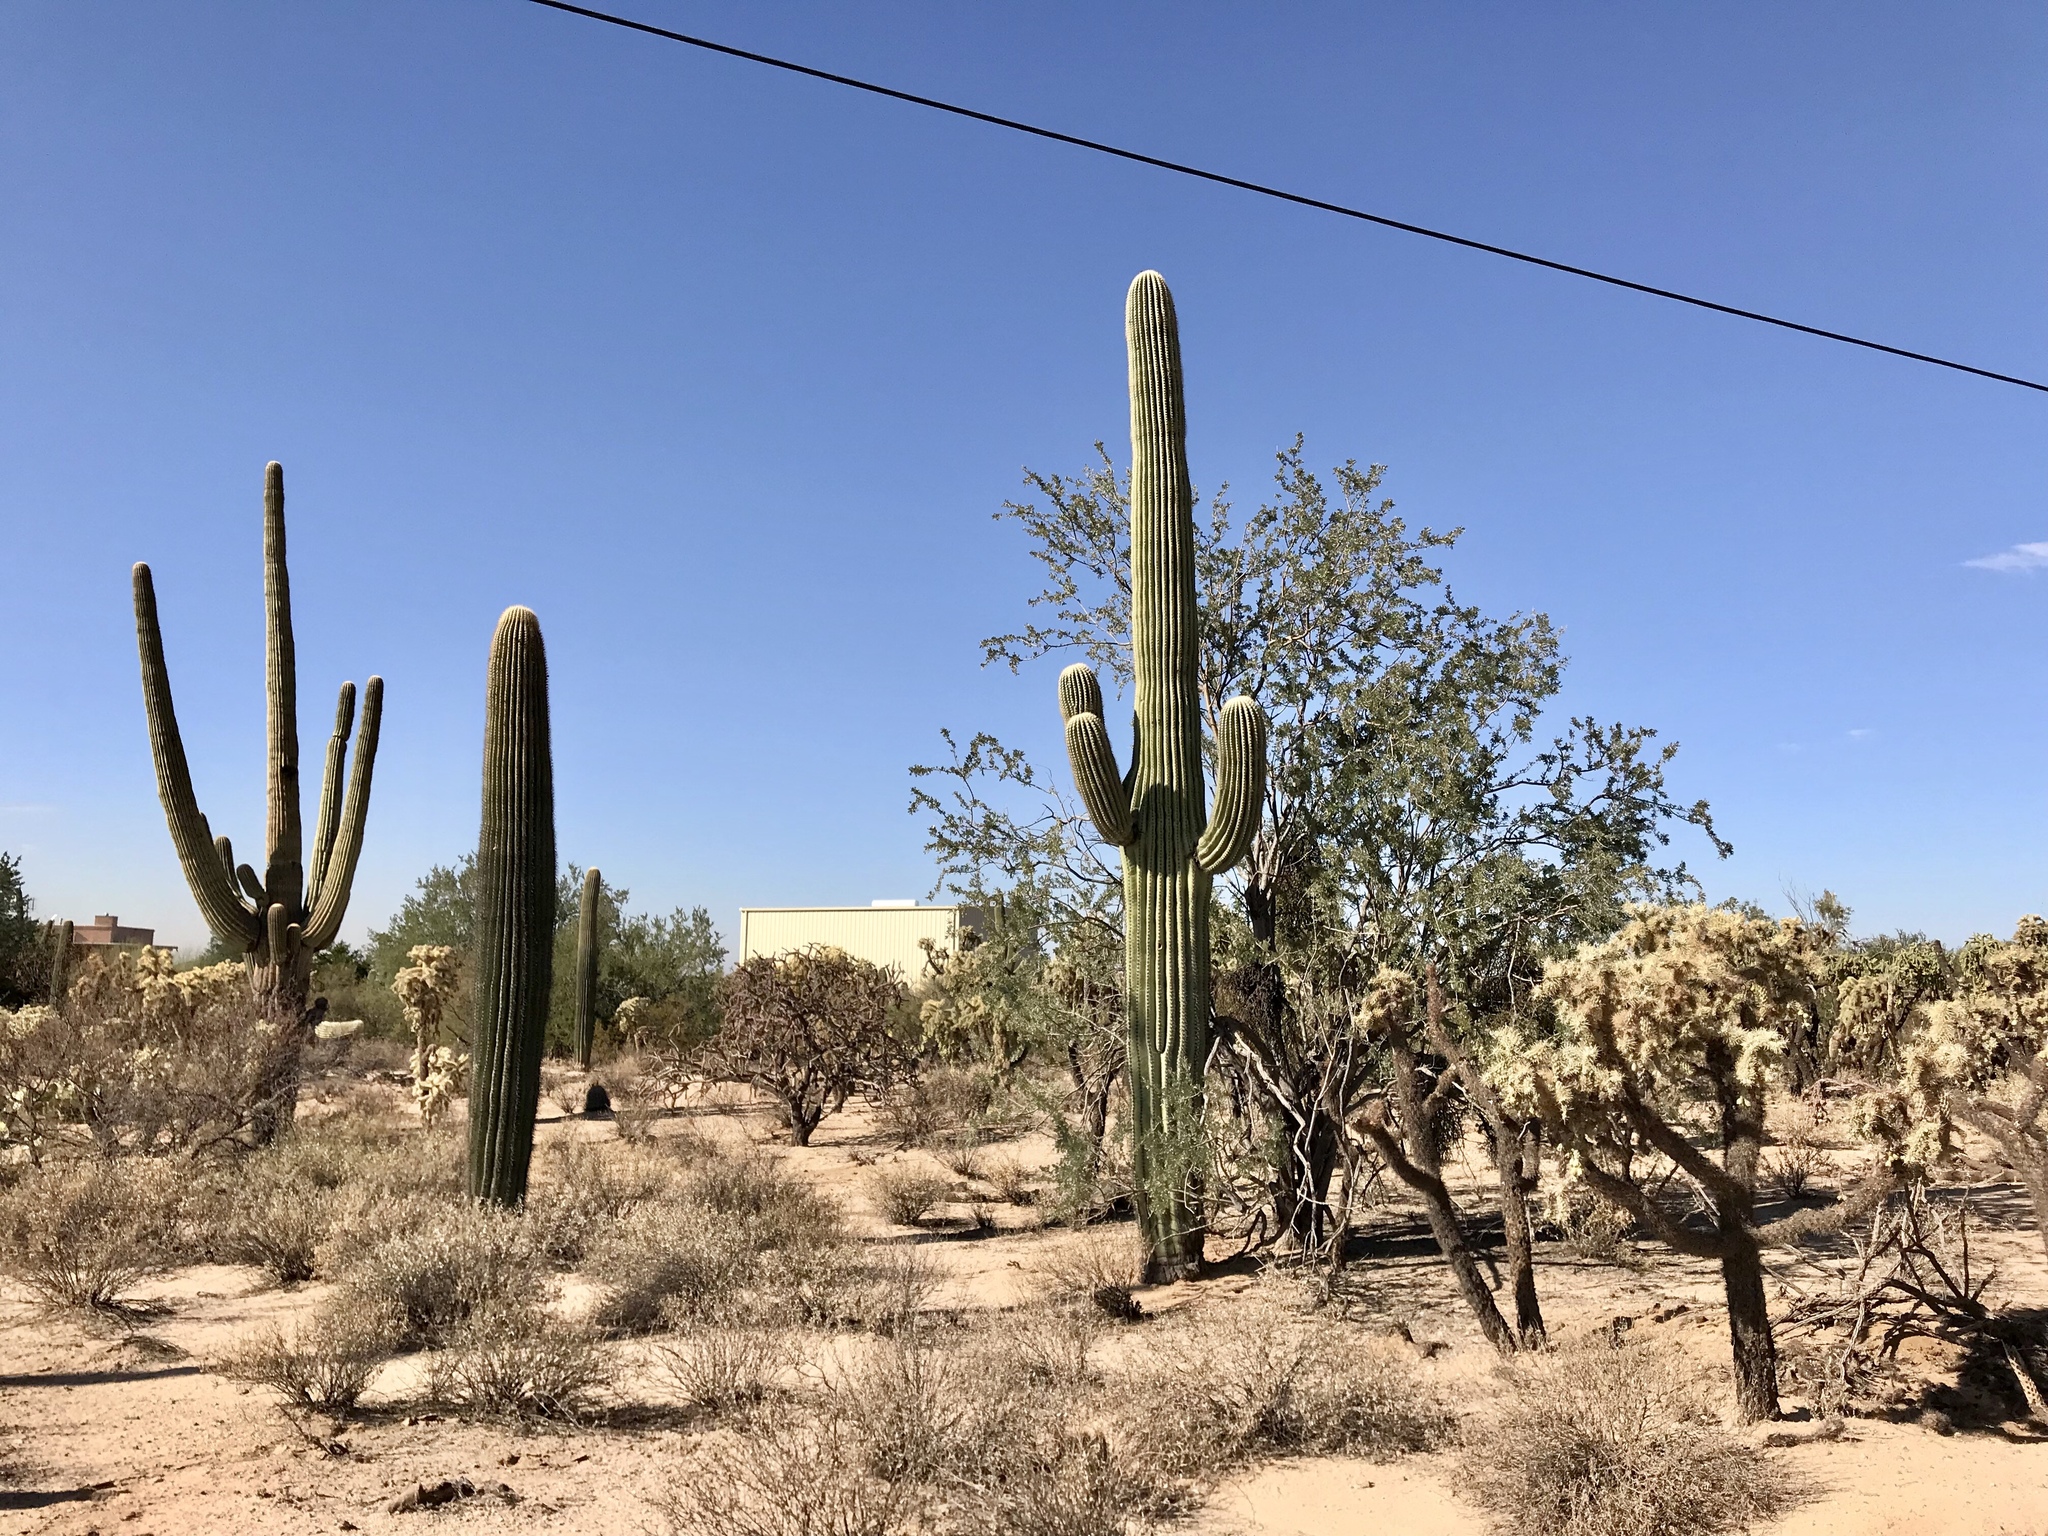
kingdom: Plantae
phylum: Tracheophyta
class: Magnoliopsida
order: Caryophyllales
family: Cactaceae
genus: Carnegiea
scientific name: Carnegiea gigantea
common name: Saguaro
